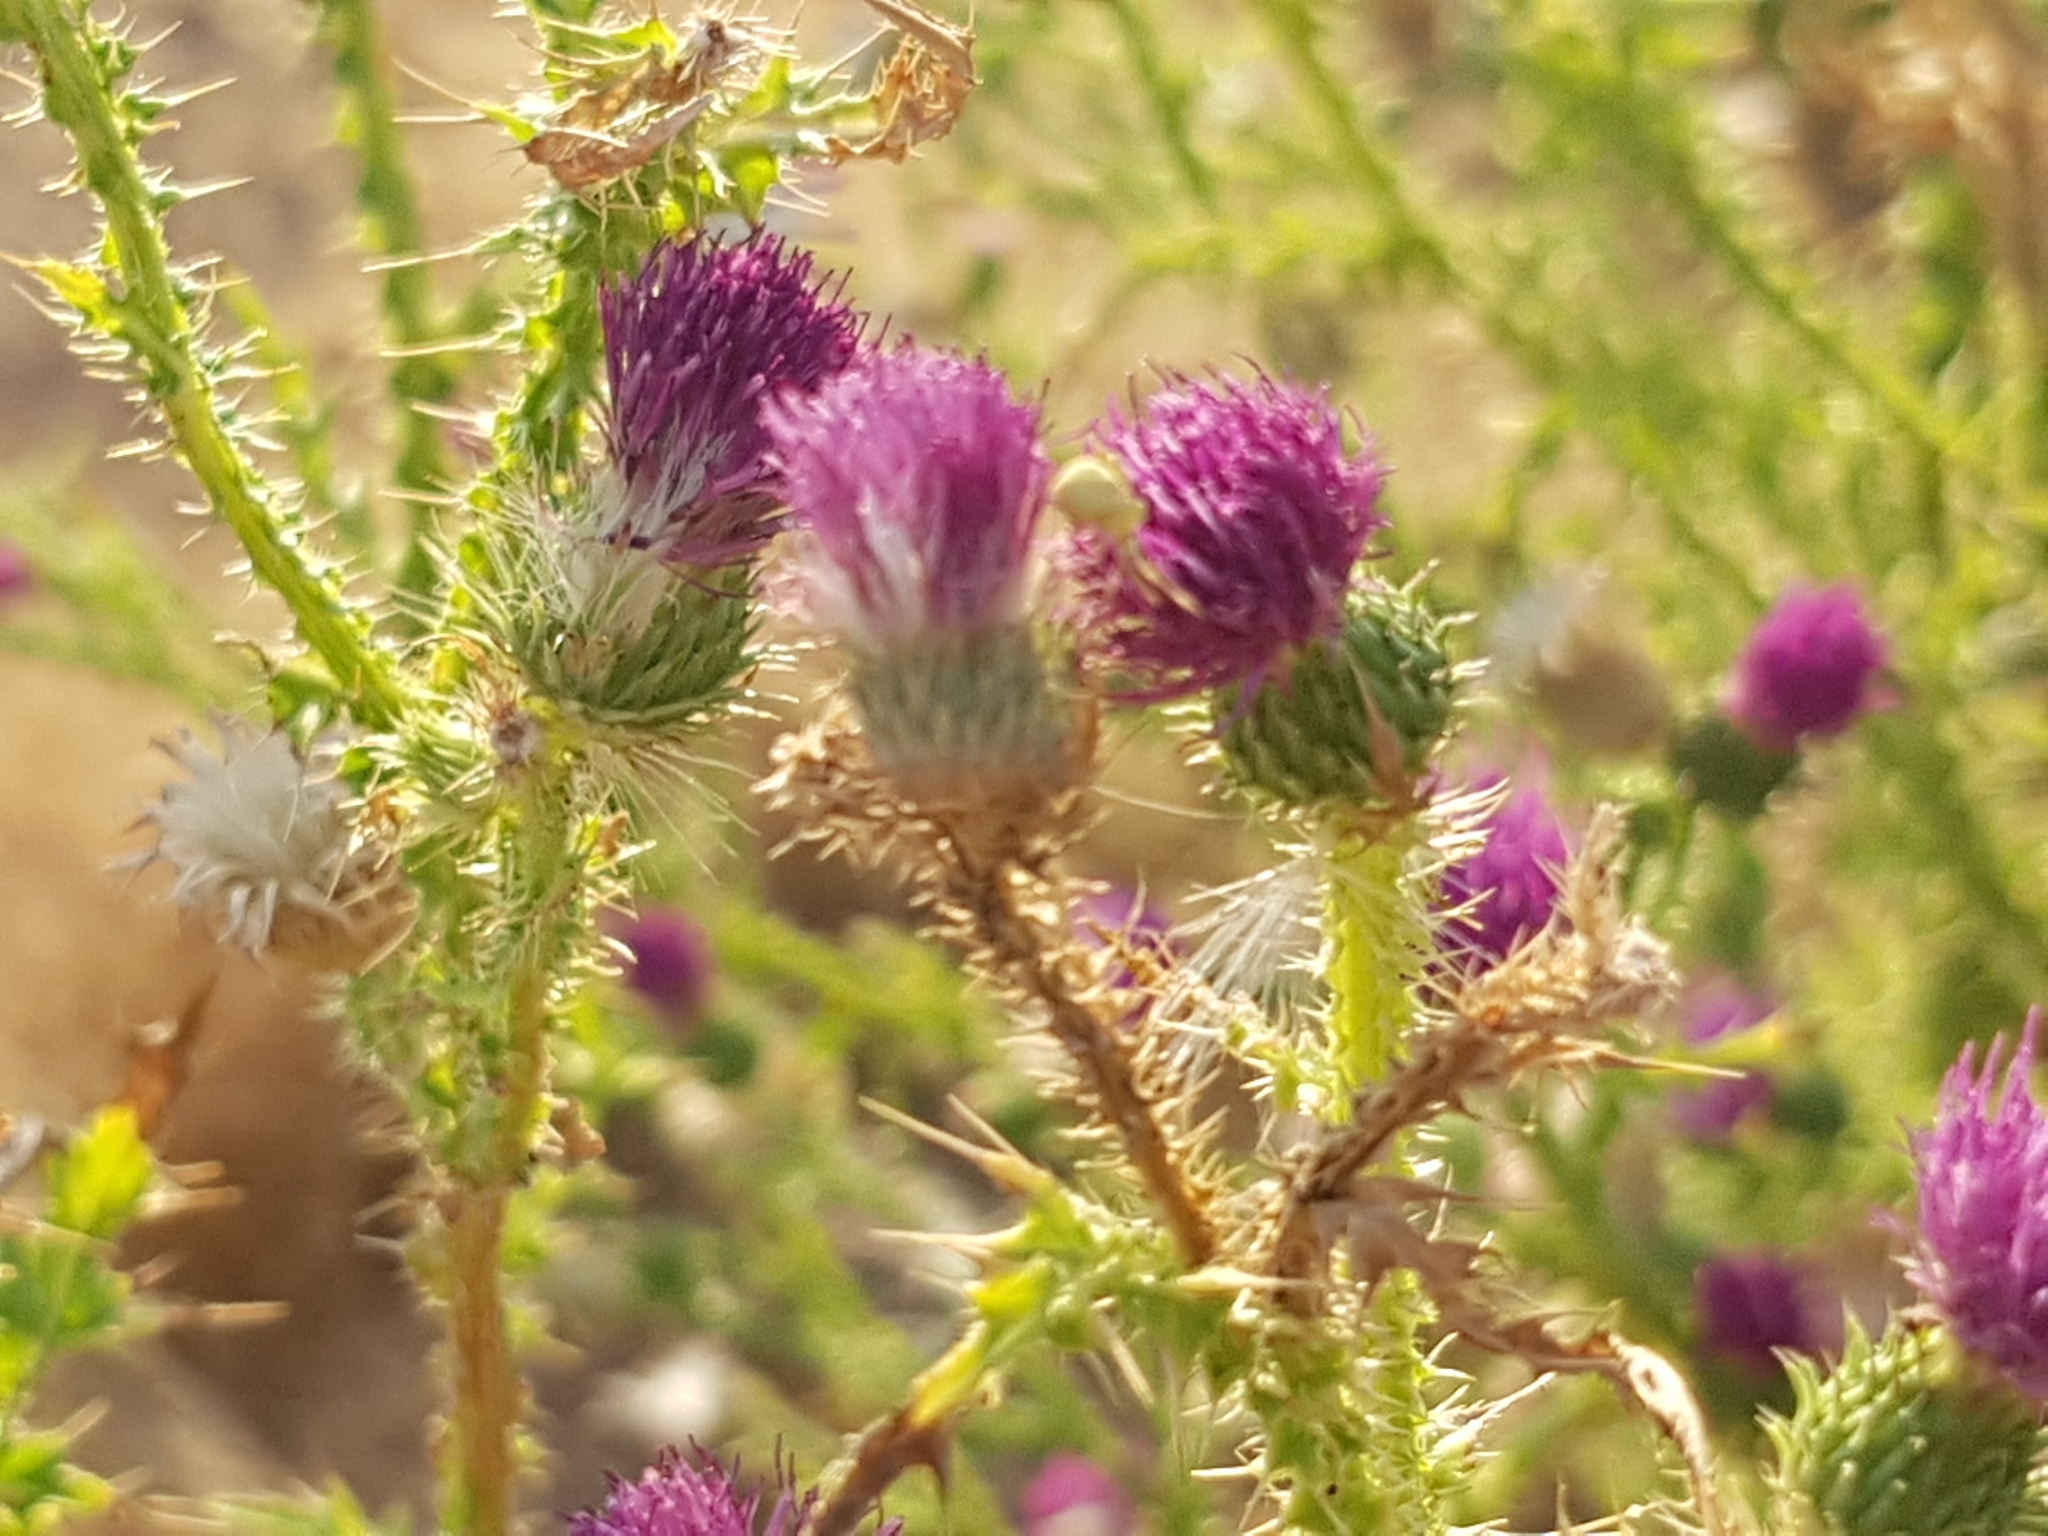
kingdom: Plantae
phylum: Tracheophyta
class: Magnoliopsida
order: Asterales
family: Asteraceae
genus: Carduus
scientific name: Carduus acanthoides
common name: Plumeless thistle
